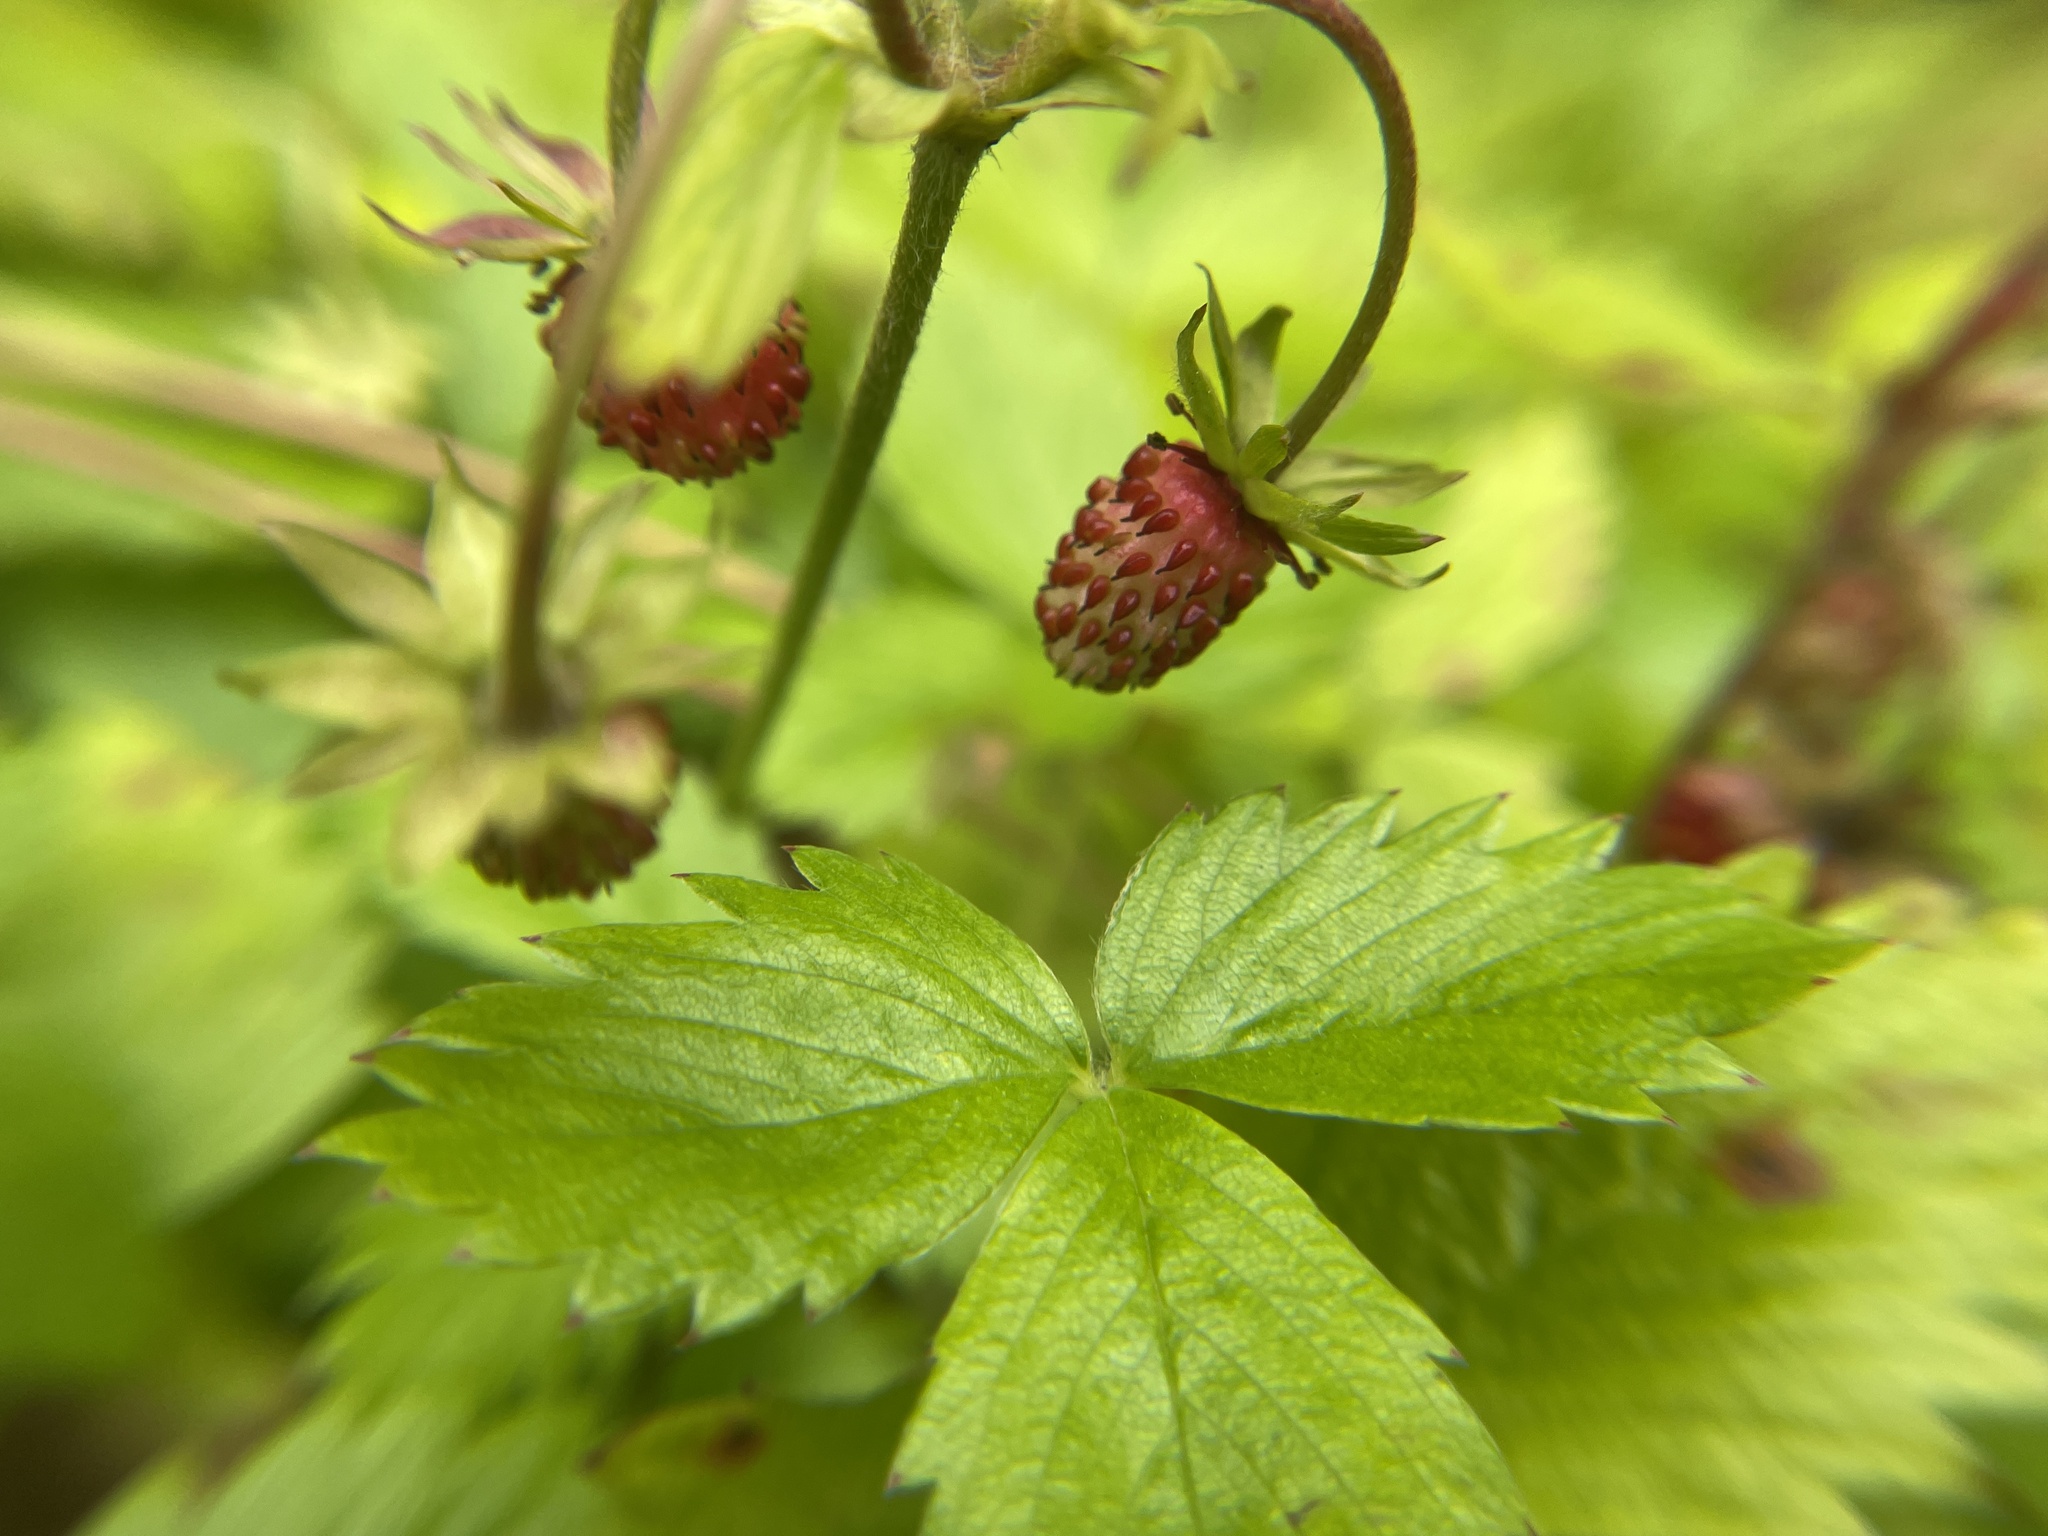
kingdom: Plantae
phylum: Tracheophyta
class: Magnoliopsida
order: Rosales
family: Rosaceae
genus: Fragaria
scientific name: Fragaria vesca
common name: Wild strawberry
